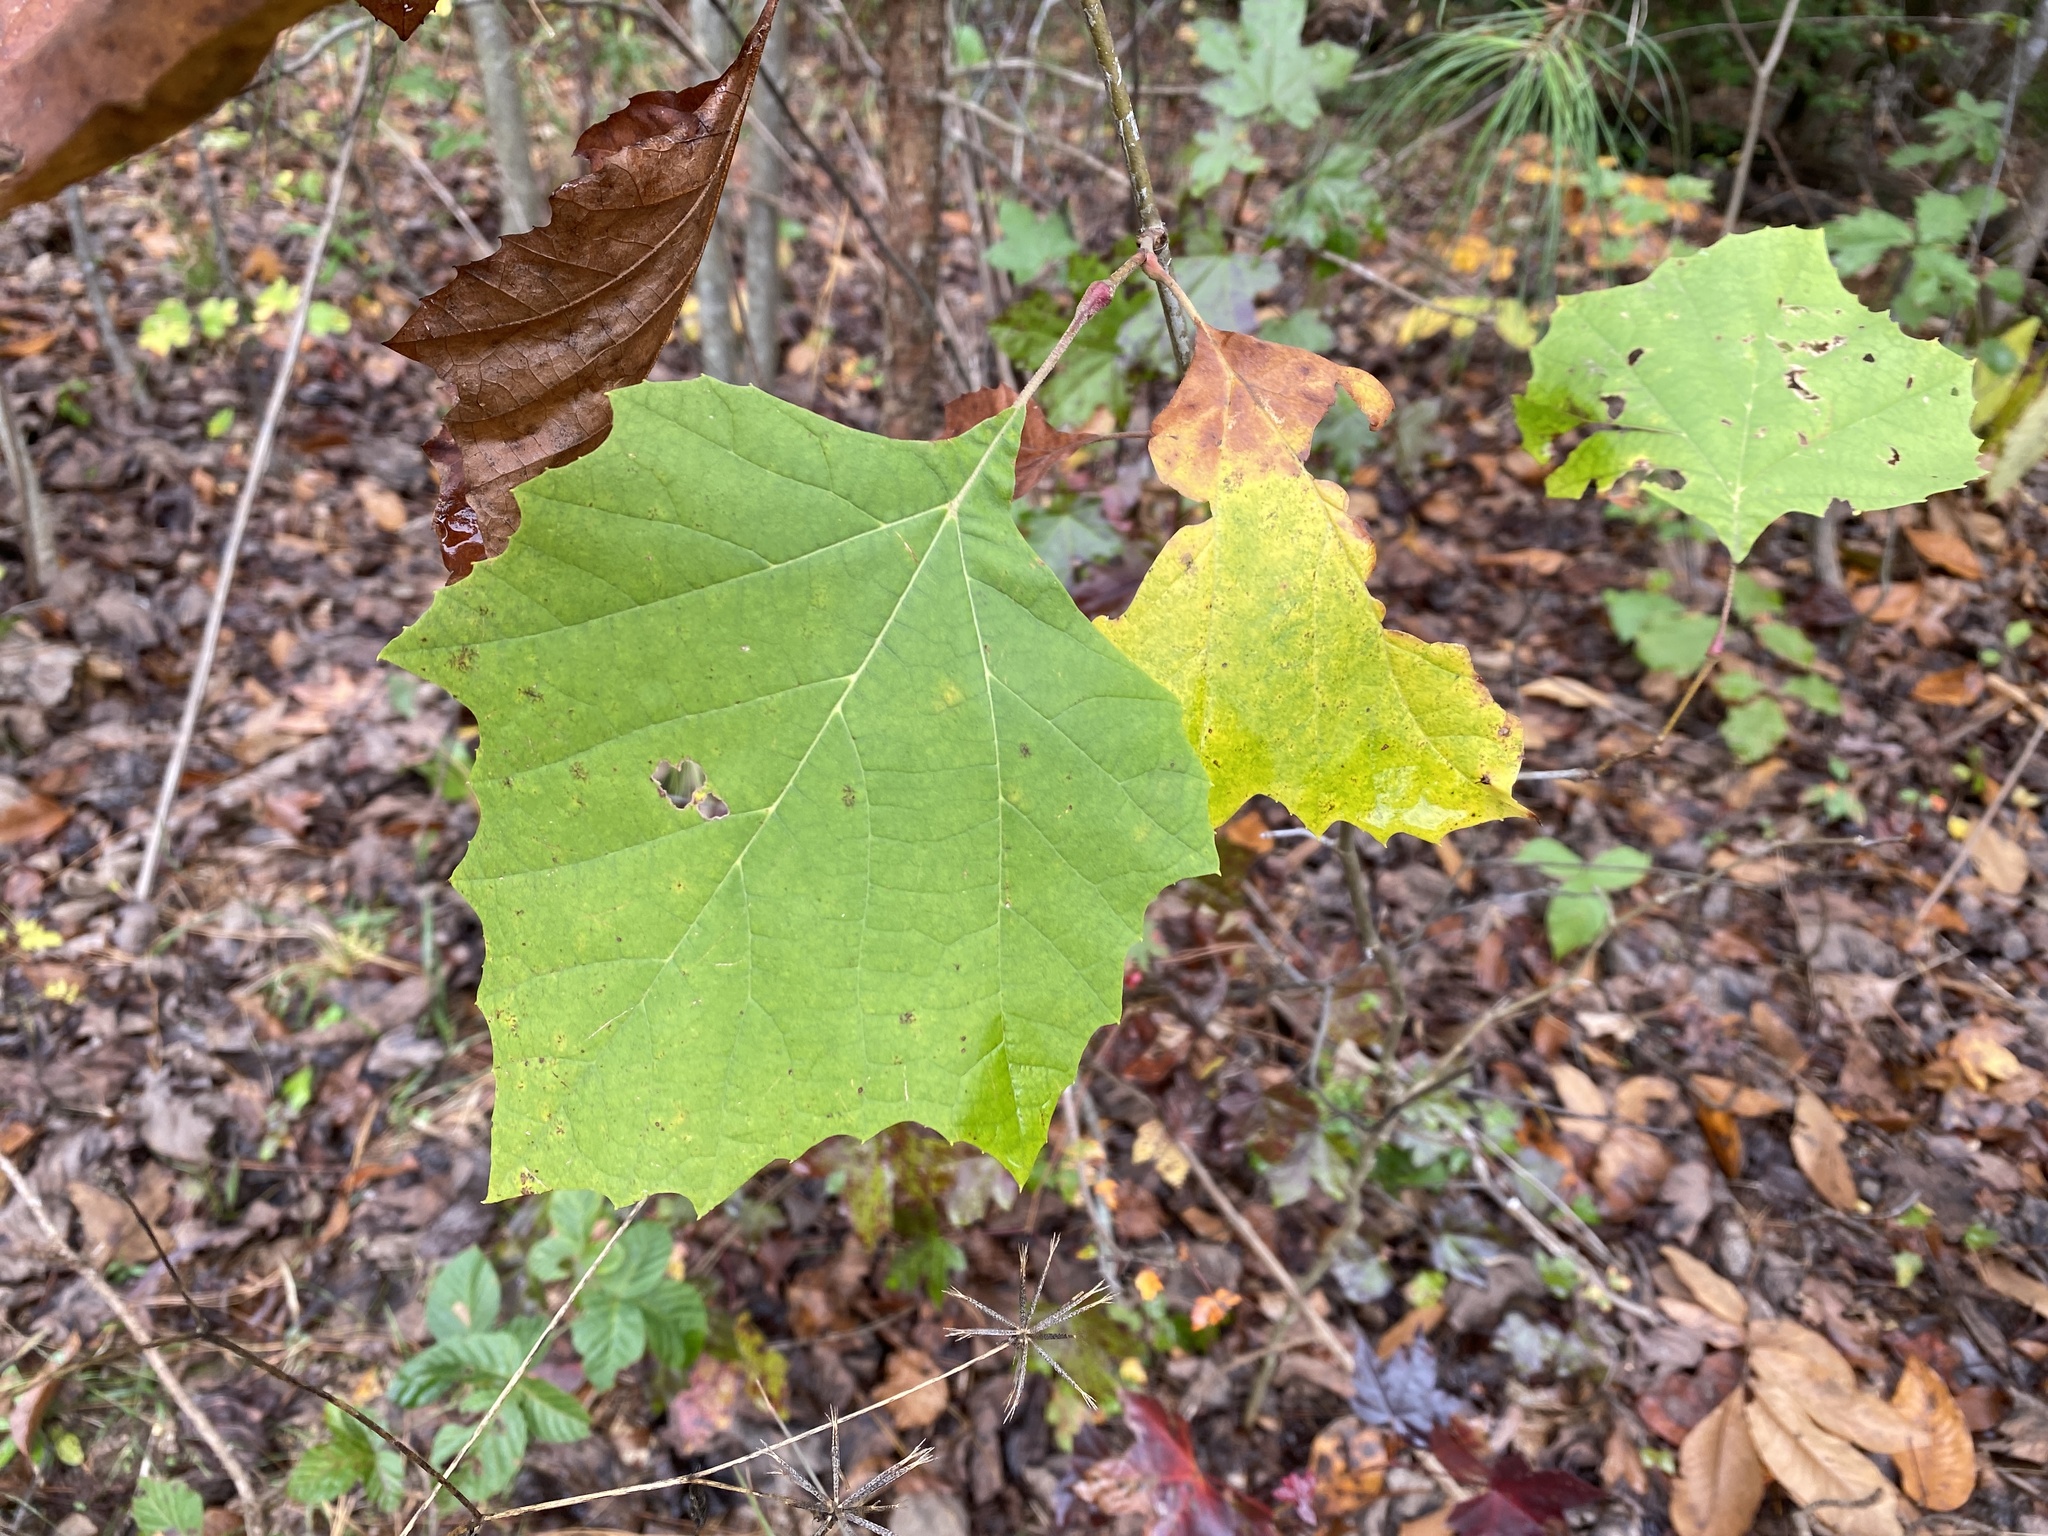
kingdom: Plantae
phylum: Tracheophyta
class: Magnoliopsida
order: Proteales
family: Platanaceae
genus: Platanus
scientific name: Platanus occidentalis
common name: American sycamore
